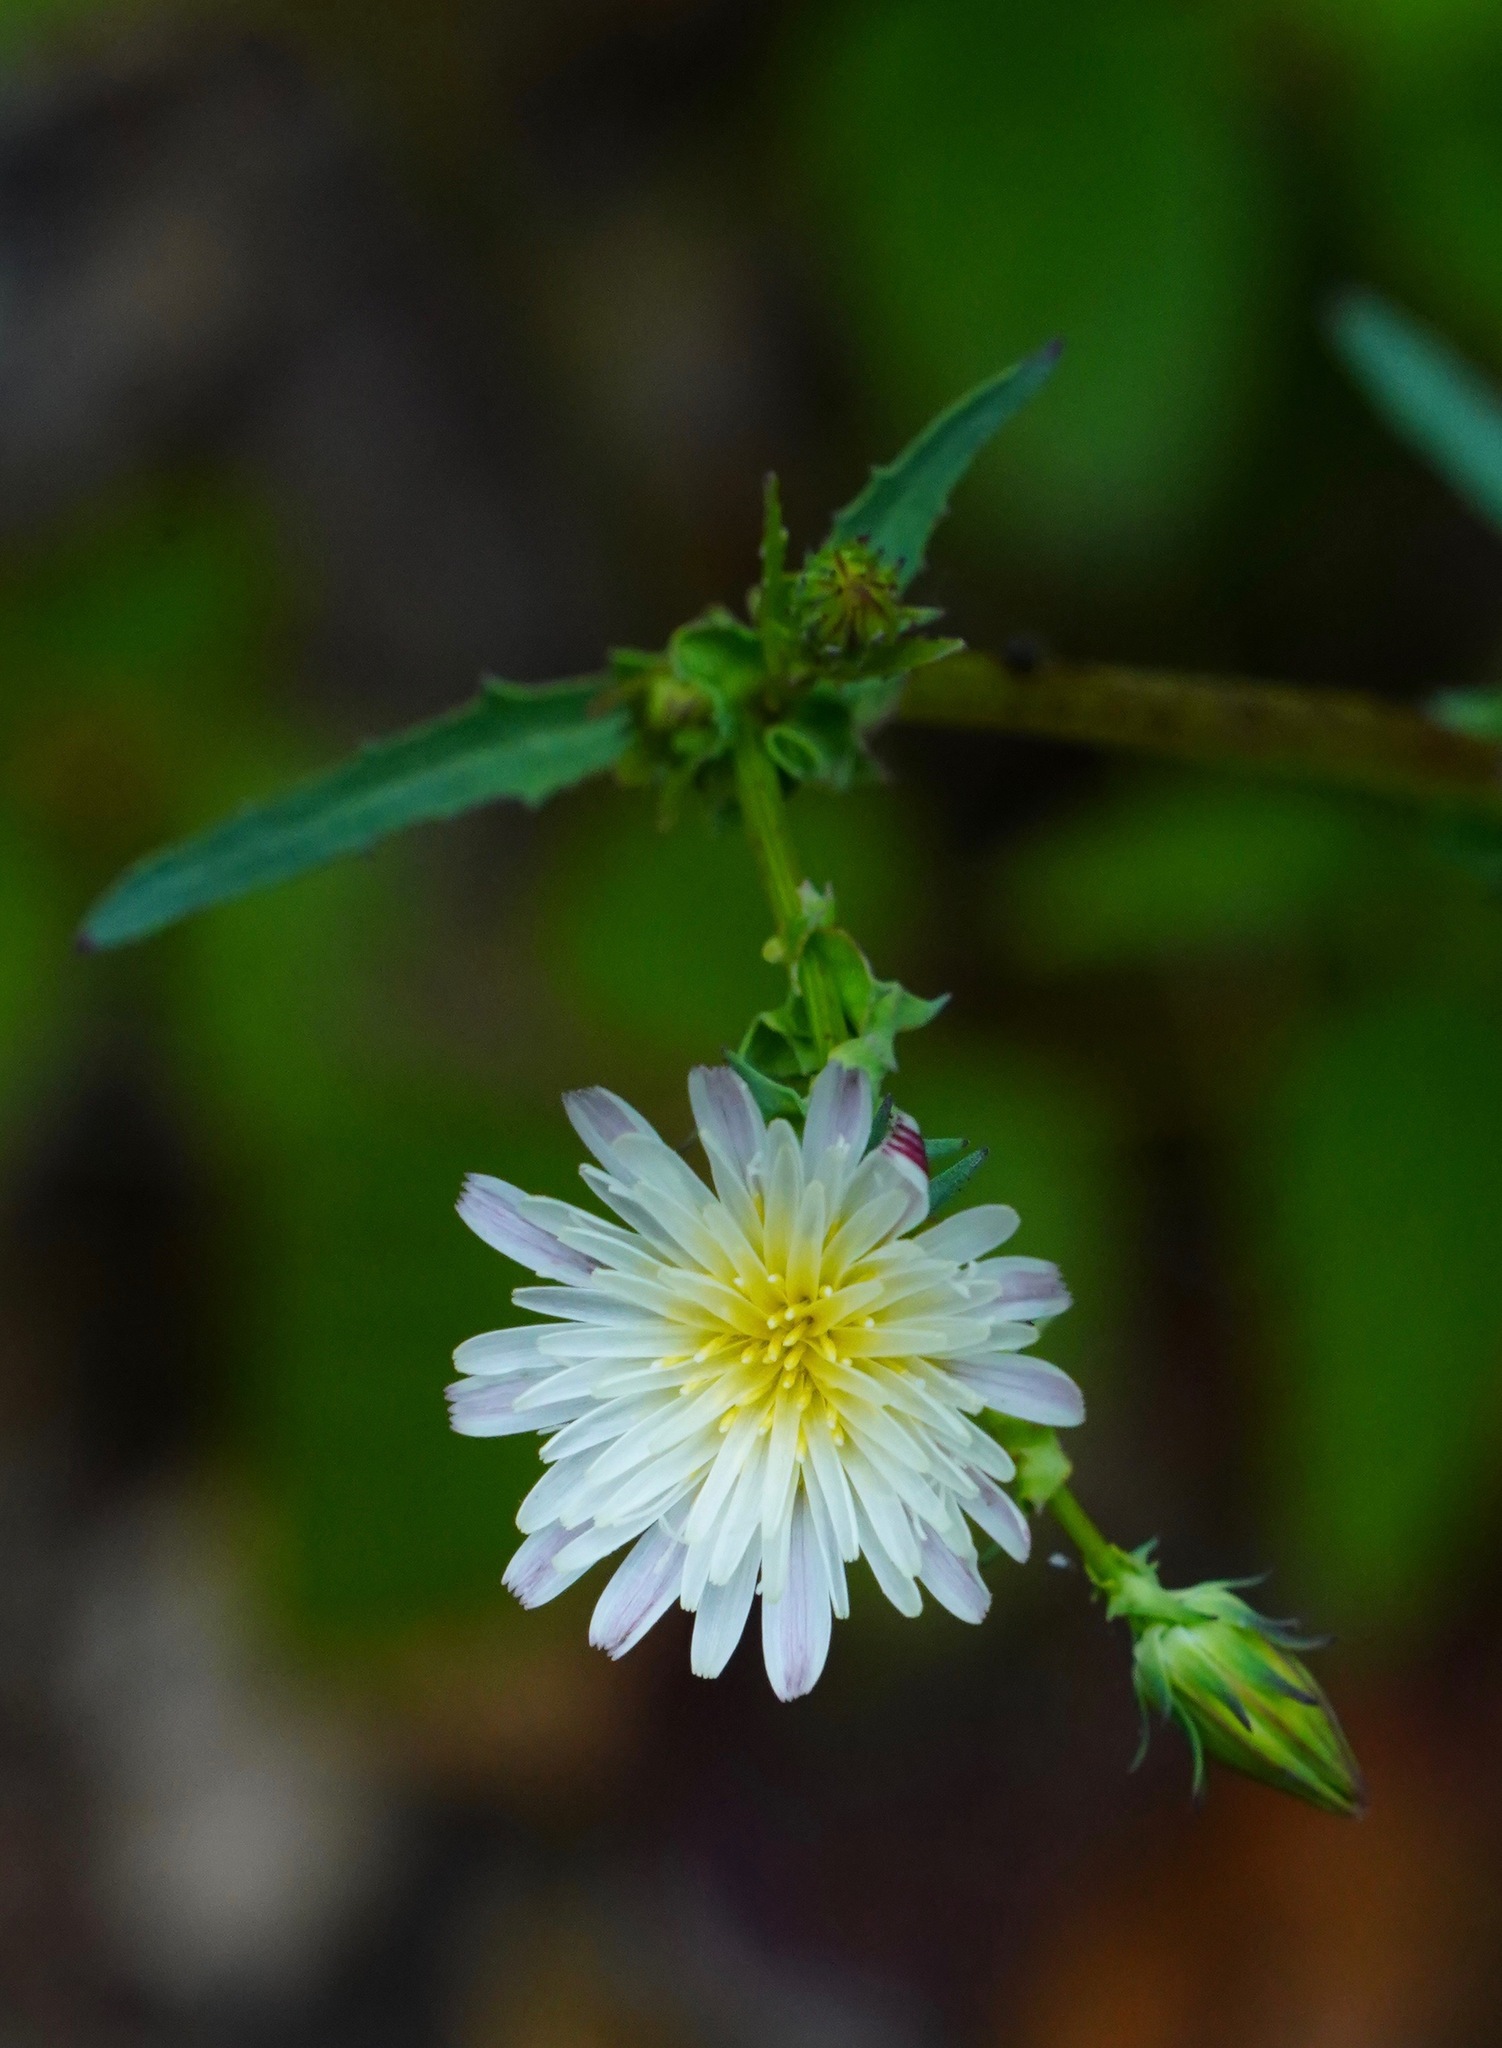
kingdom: Plantae
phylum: Tracheophyta
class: Magnoliopsida
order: Asterales
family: Asteraceae
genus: Rafinesquia
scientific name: Rafinesquia californica
